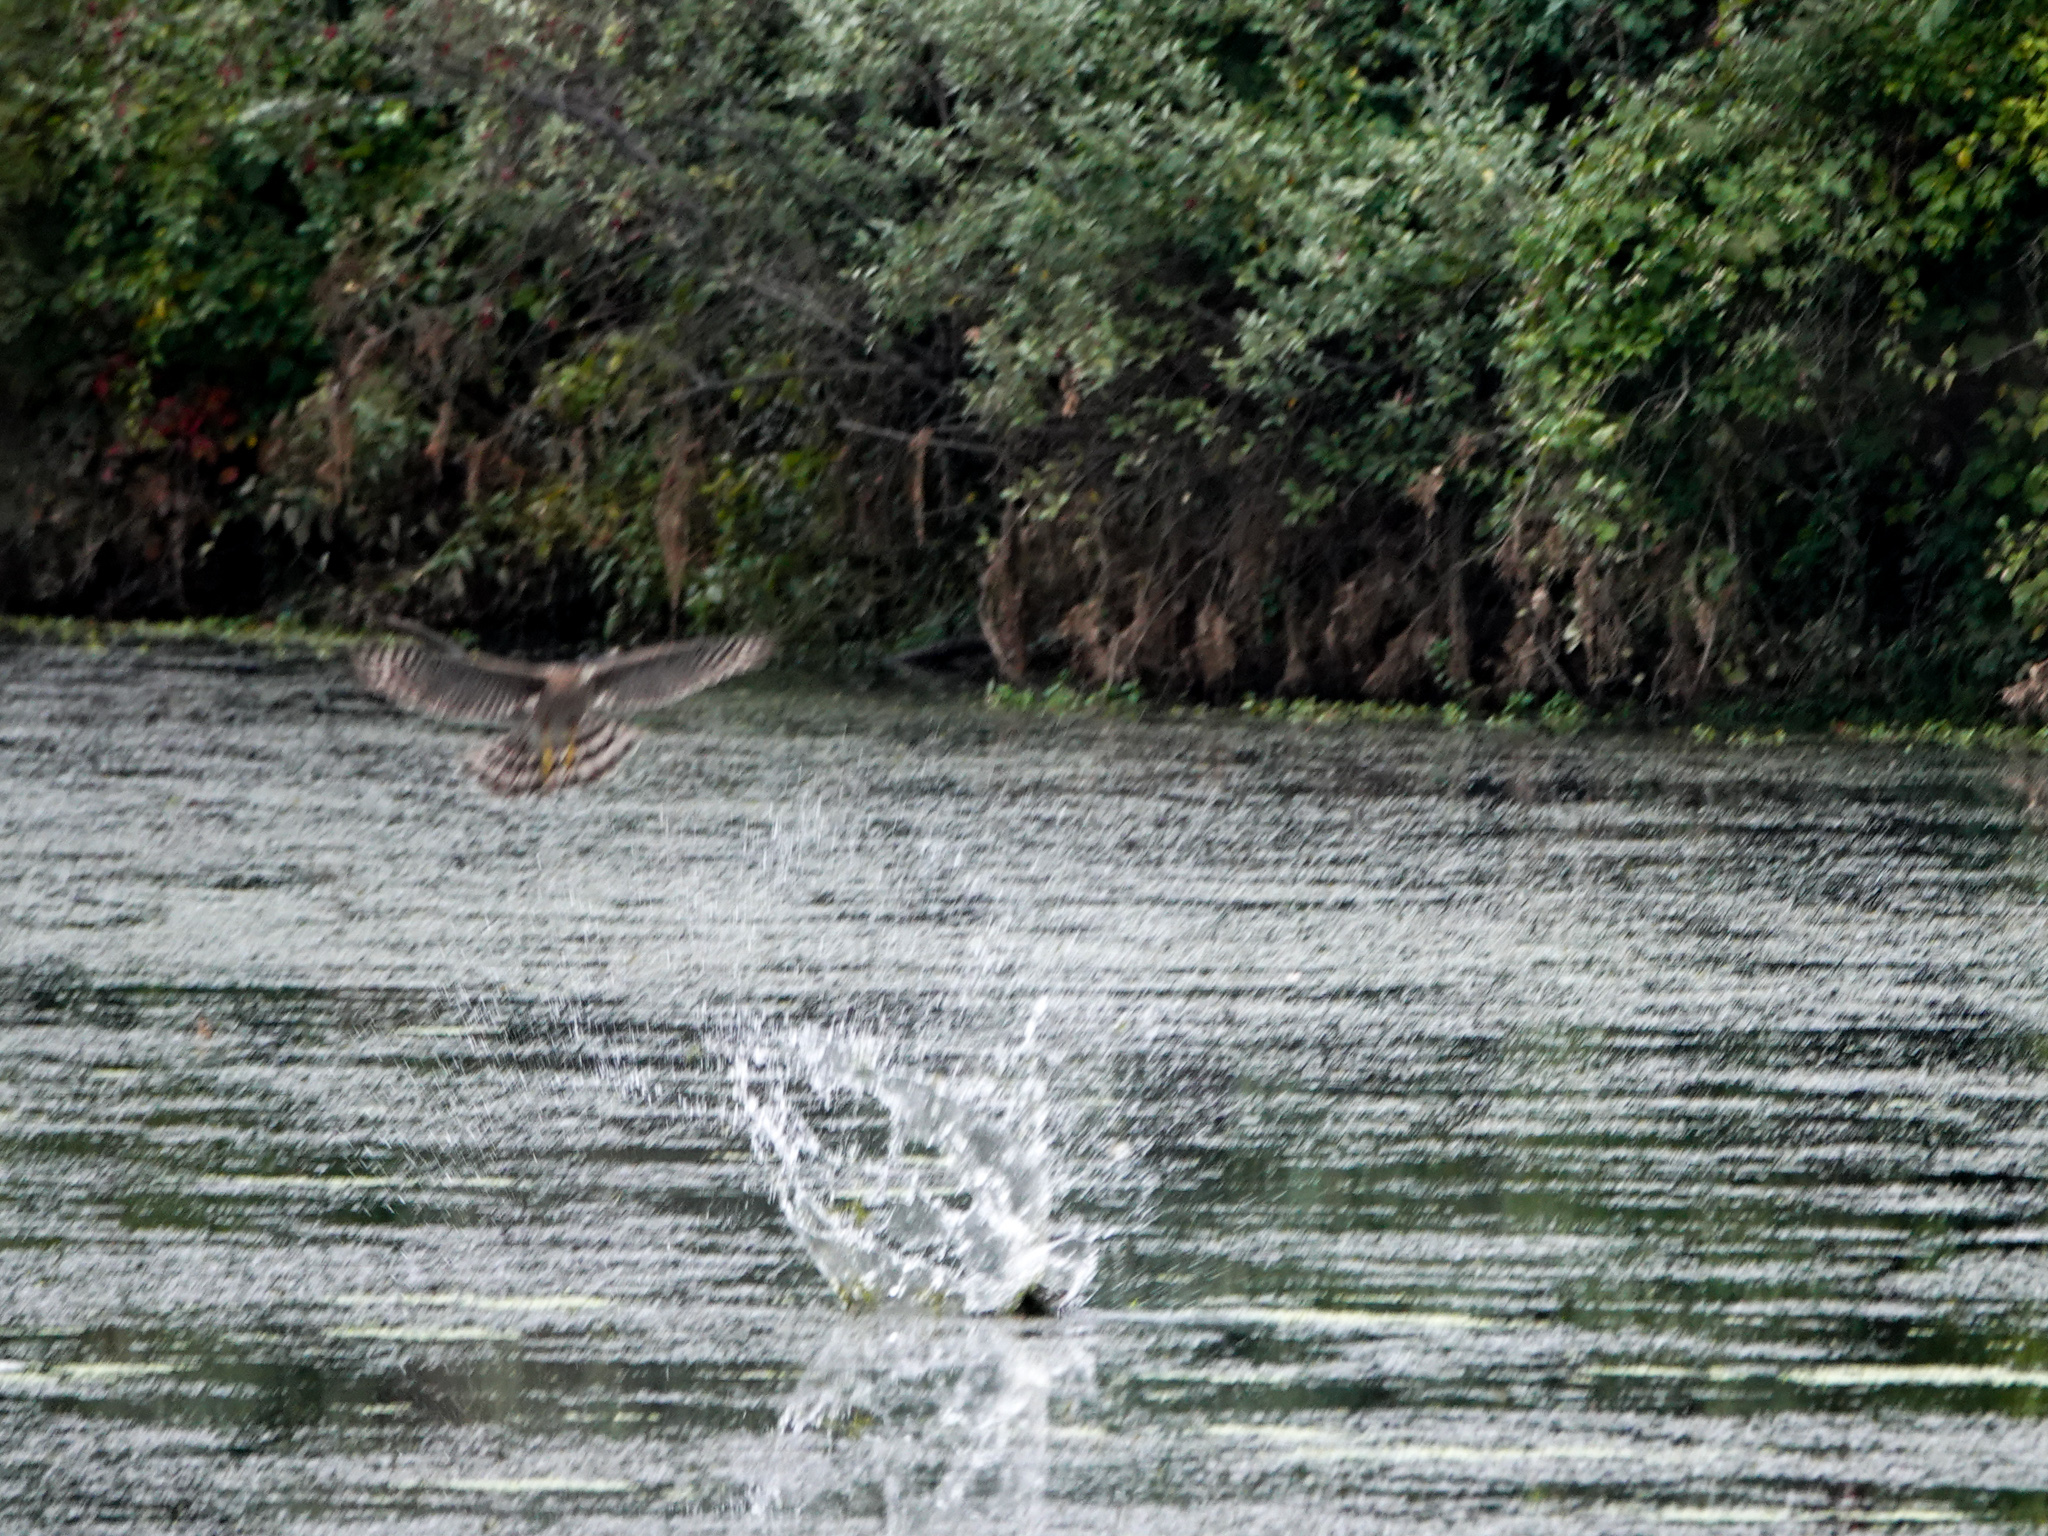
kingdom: Animalia
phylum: Chordata
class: Aves
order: Accipitriformes
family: Accipitridae
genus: Accipiter
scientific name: Accipiter cooperii
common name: Cooper's hawk
